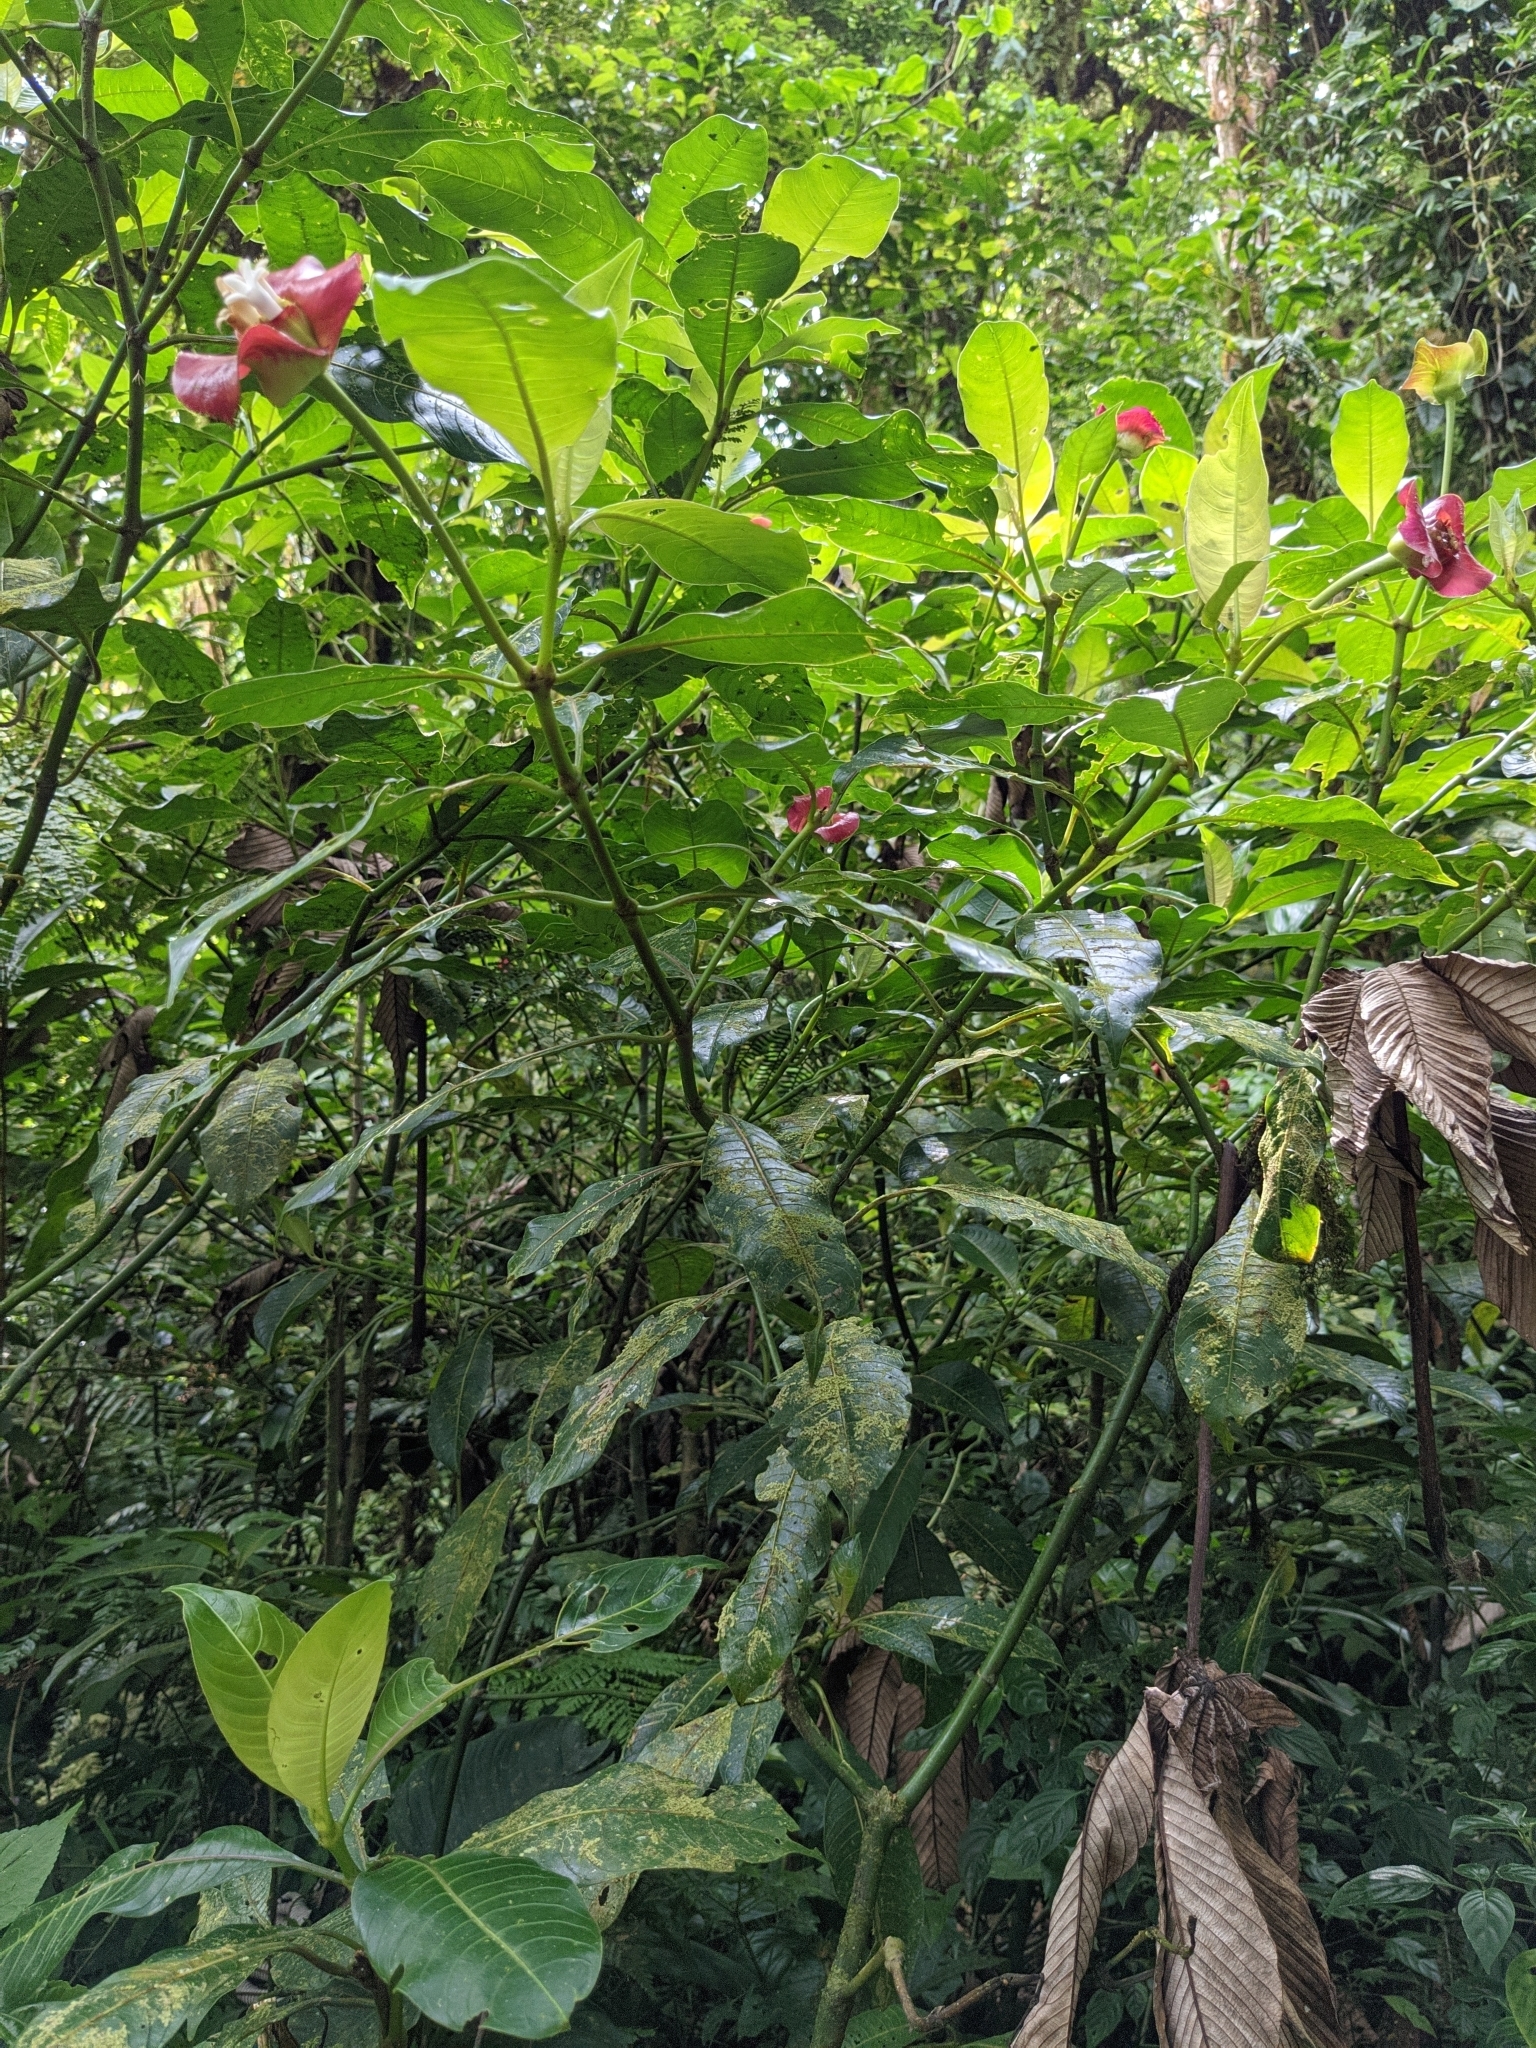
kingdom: Plantae
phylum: Tracheophyta
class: Magnoliopsida
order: Gentianales
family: Rubiaceae
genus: Palicourea
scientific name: Palicourea elata
